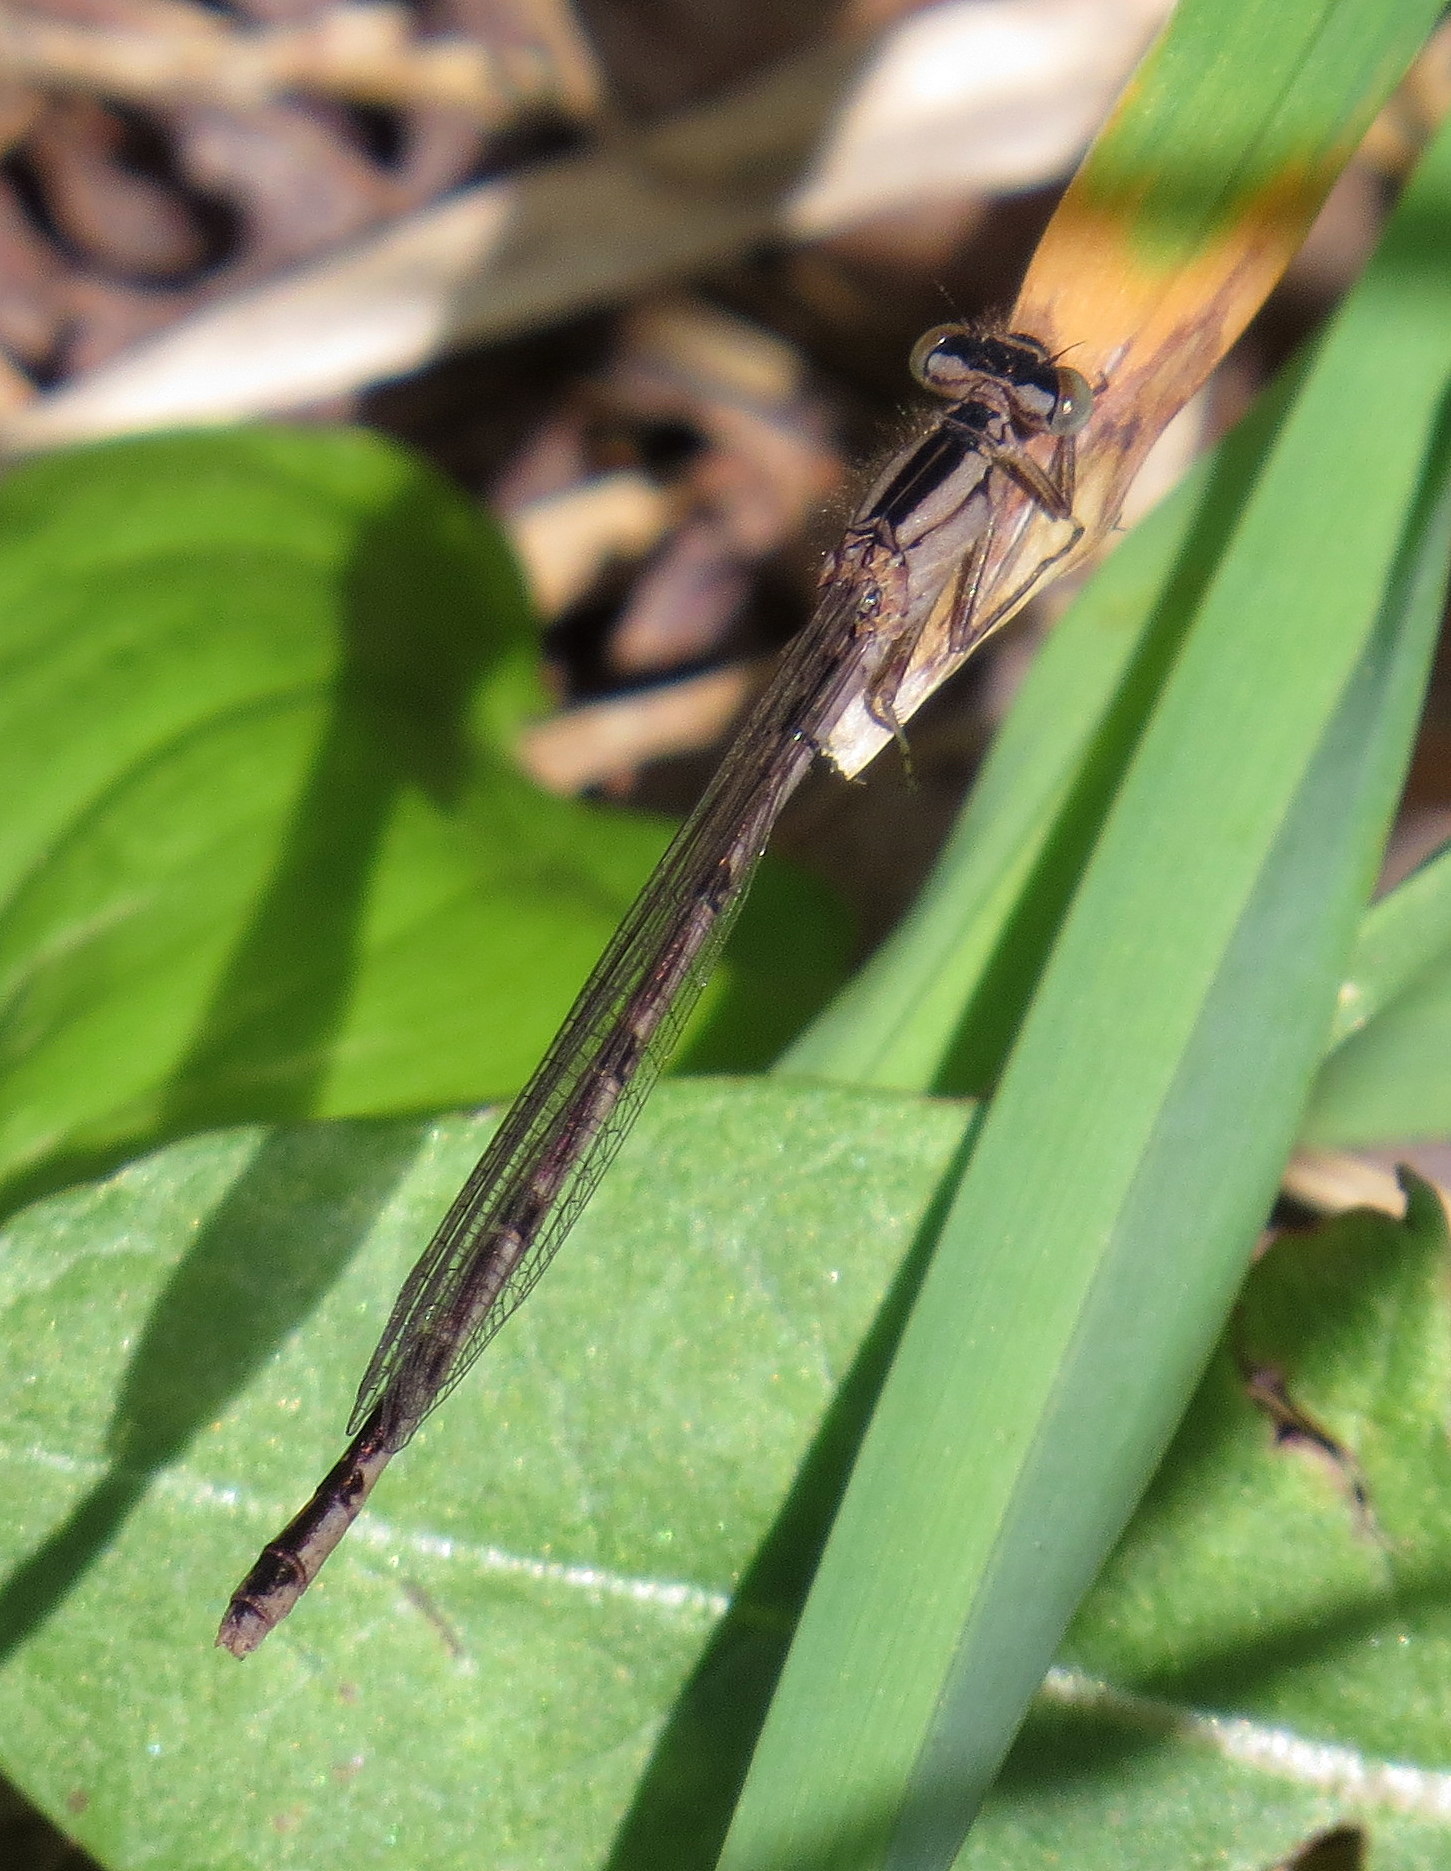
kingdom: Animalia
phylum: Arthropoda
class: Insecta
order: Odonata
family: Coenagrionidae
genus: Enallagma
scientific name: Enallagma boreale
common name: Boreal bluet
